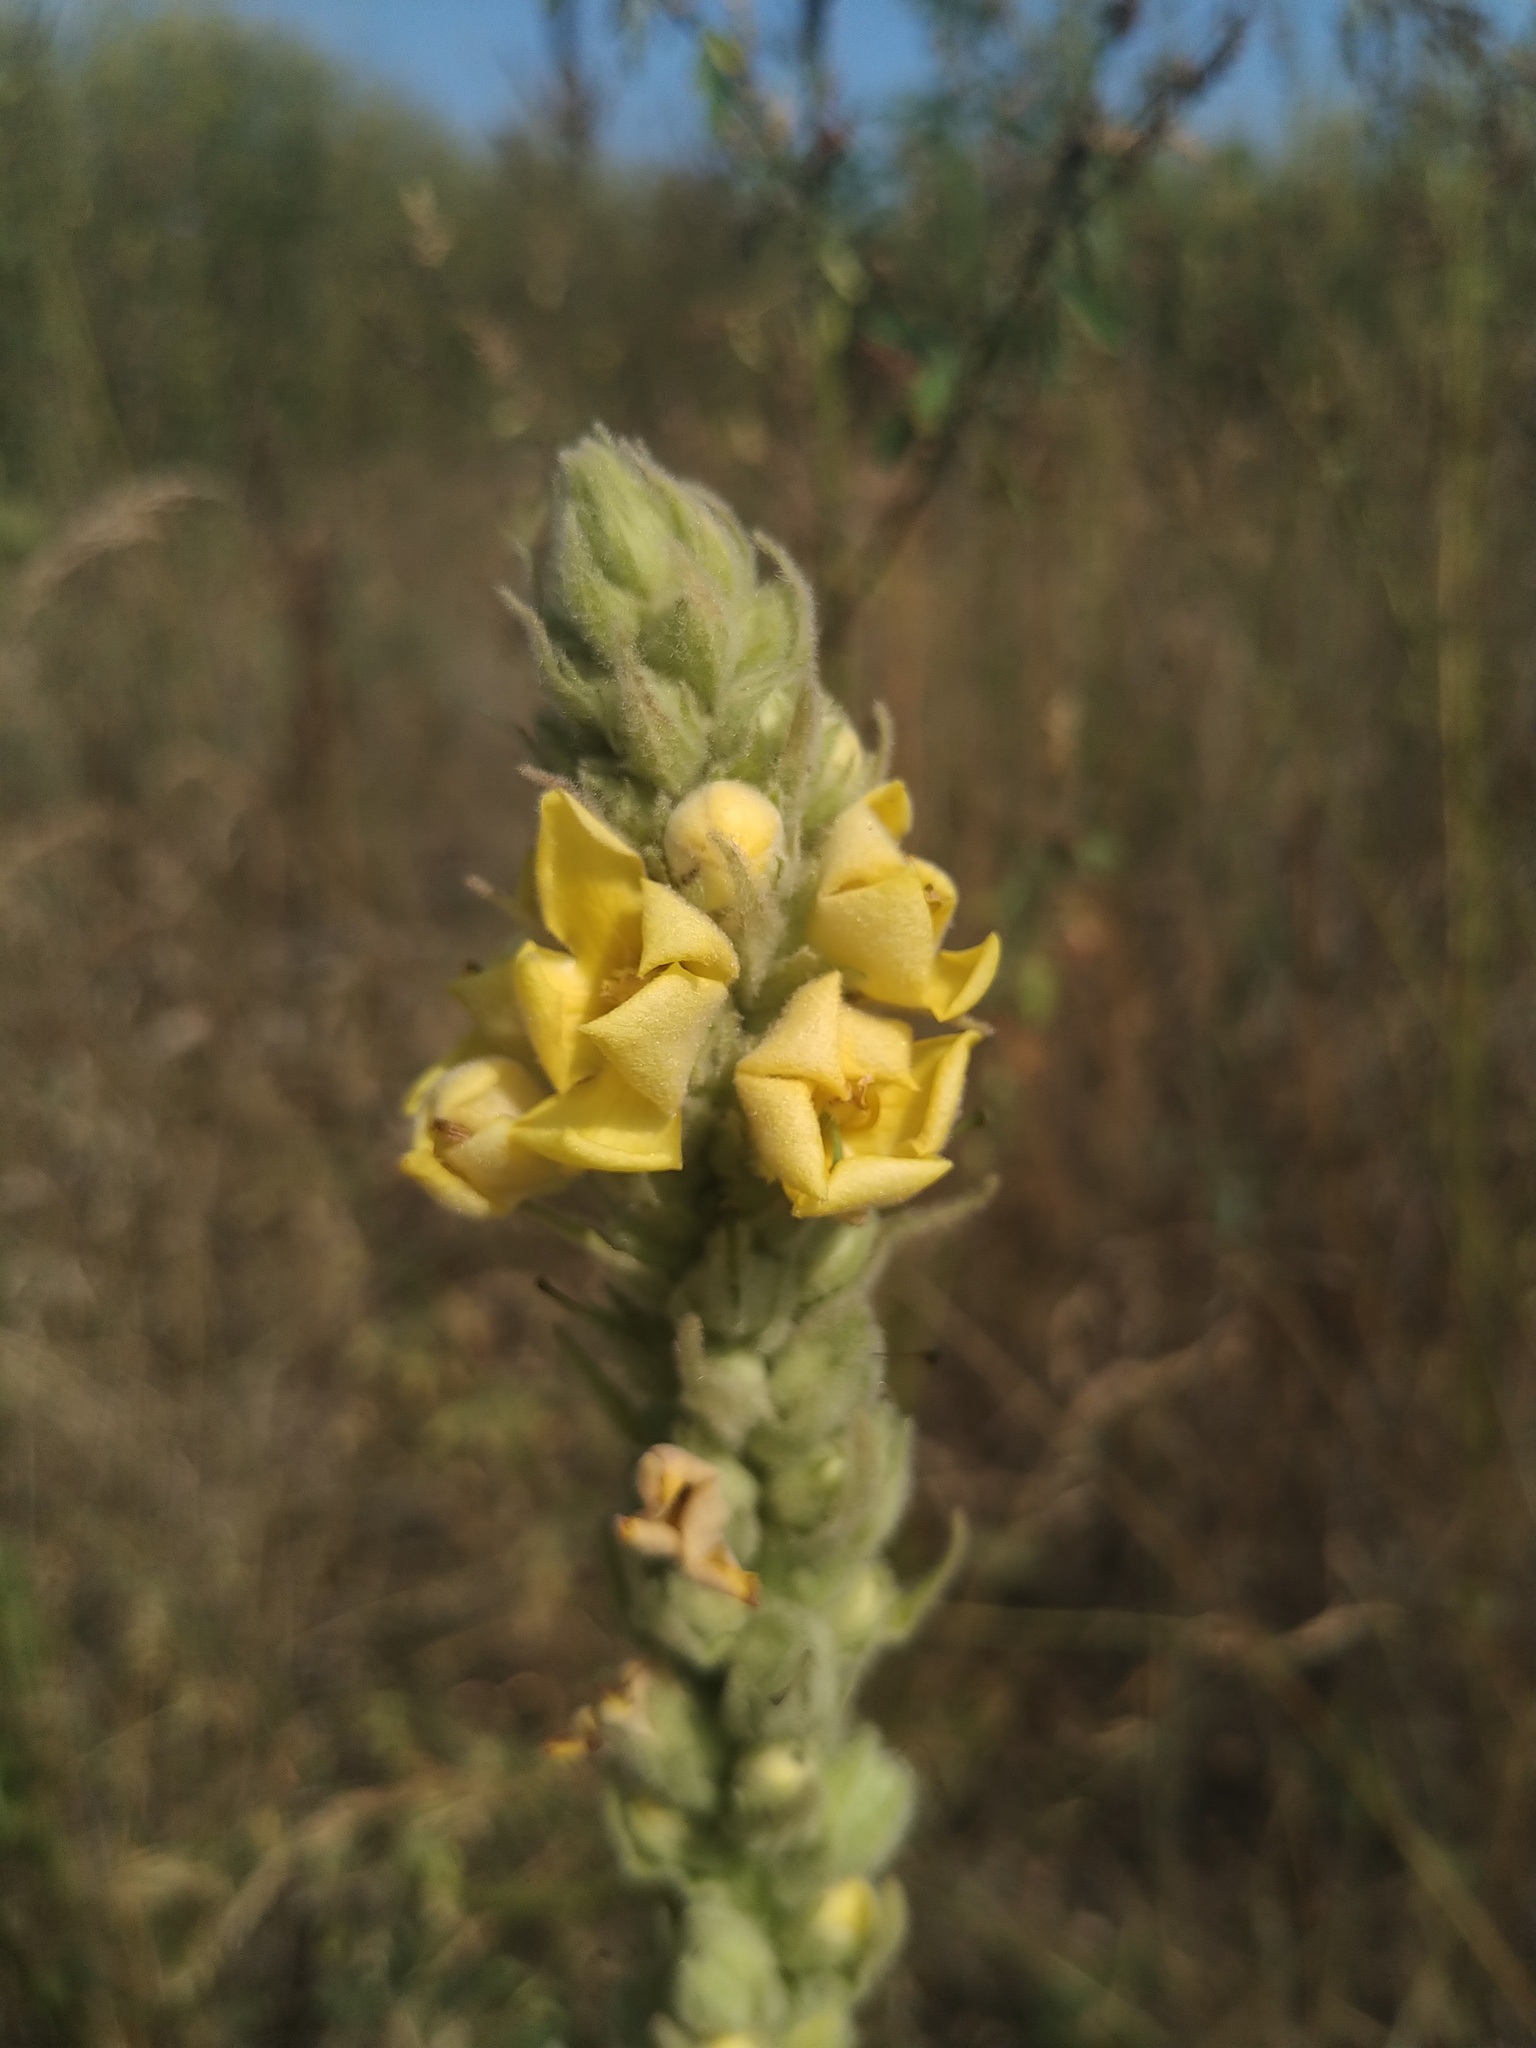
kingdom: Plantae
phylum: Tracheophyta
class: Magnoliopsida
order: Lamiales
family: Scrophulariaceae
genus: Verbascum
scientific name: Verbascum thapsus
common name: Common mullein
